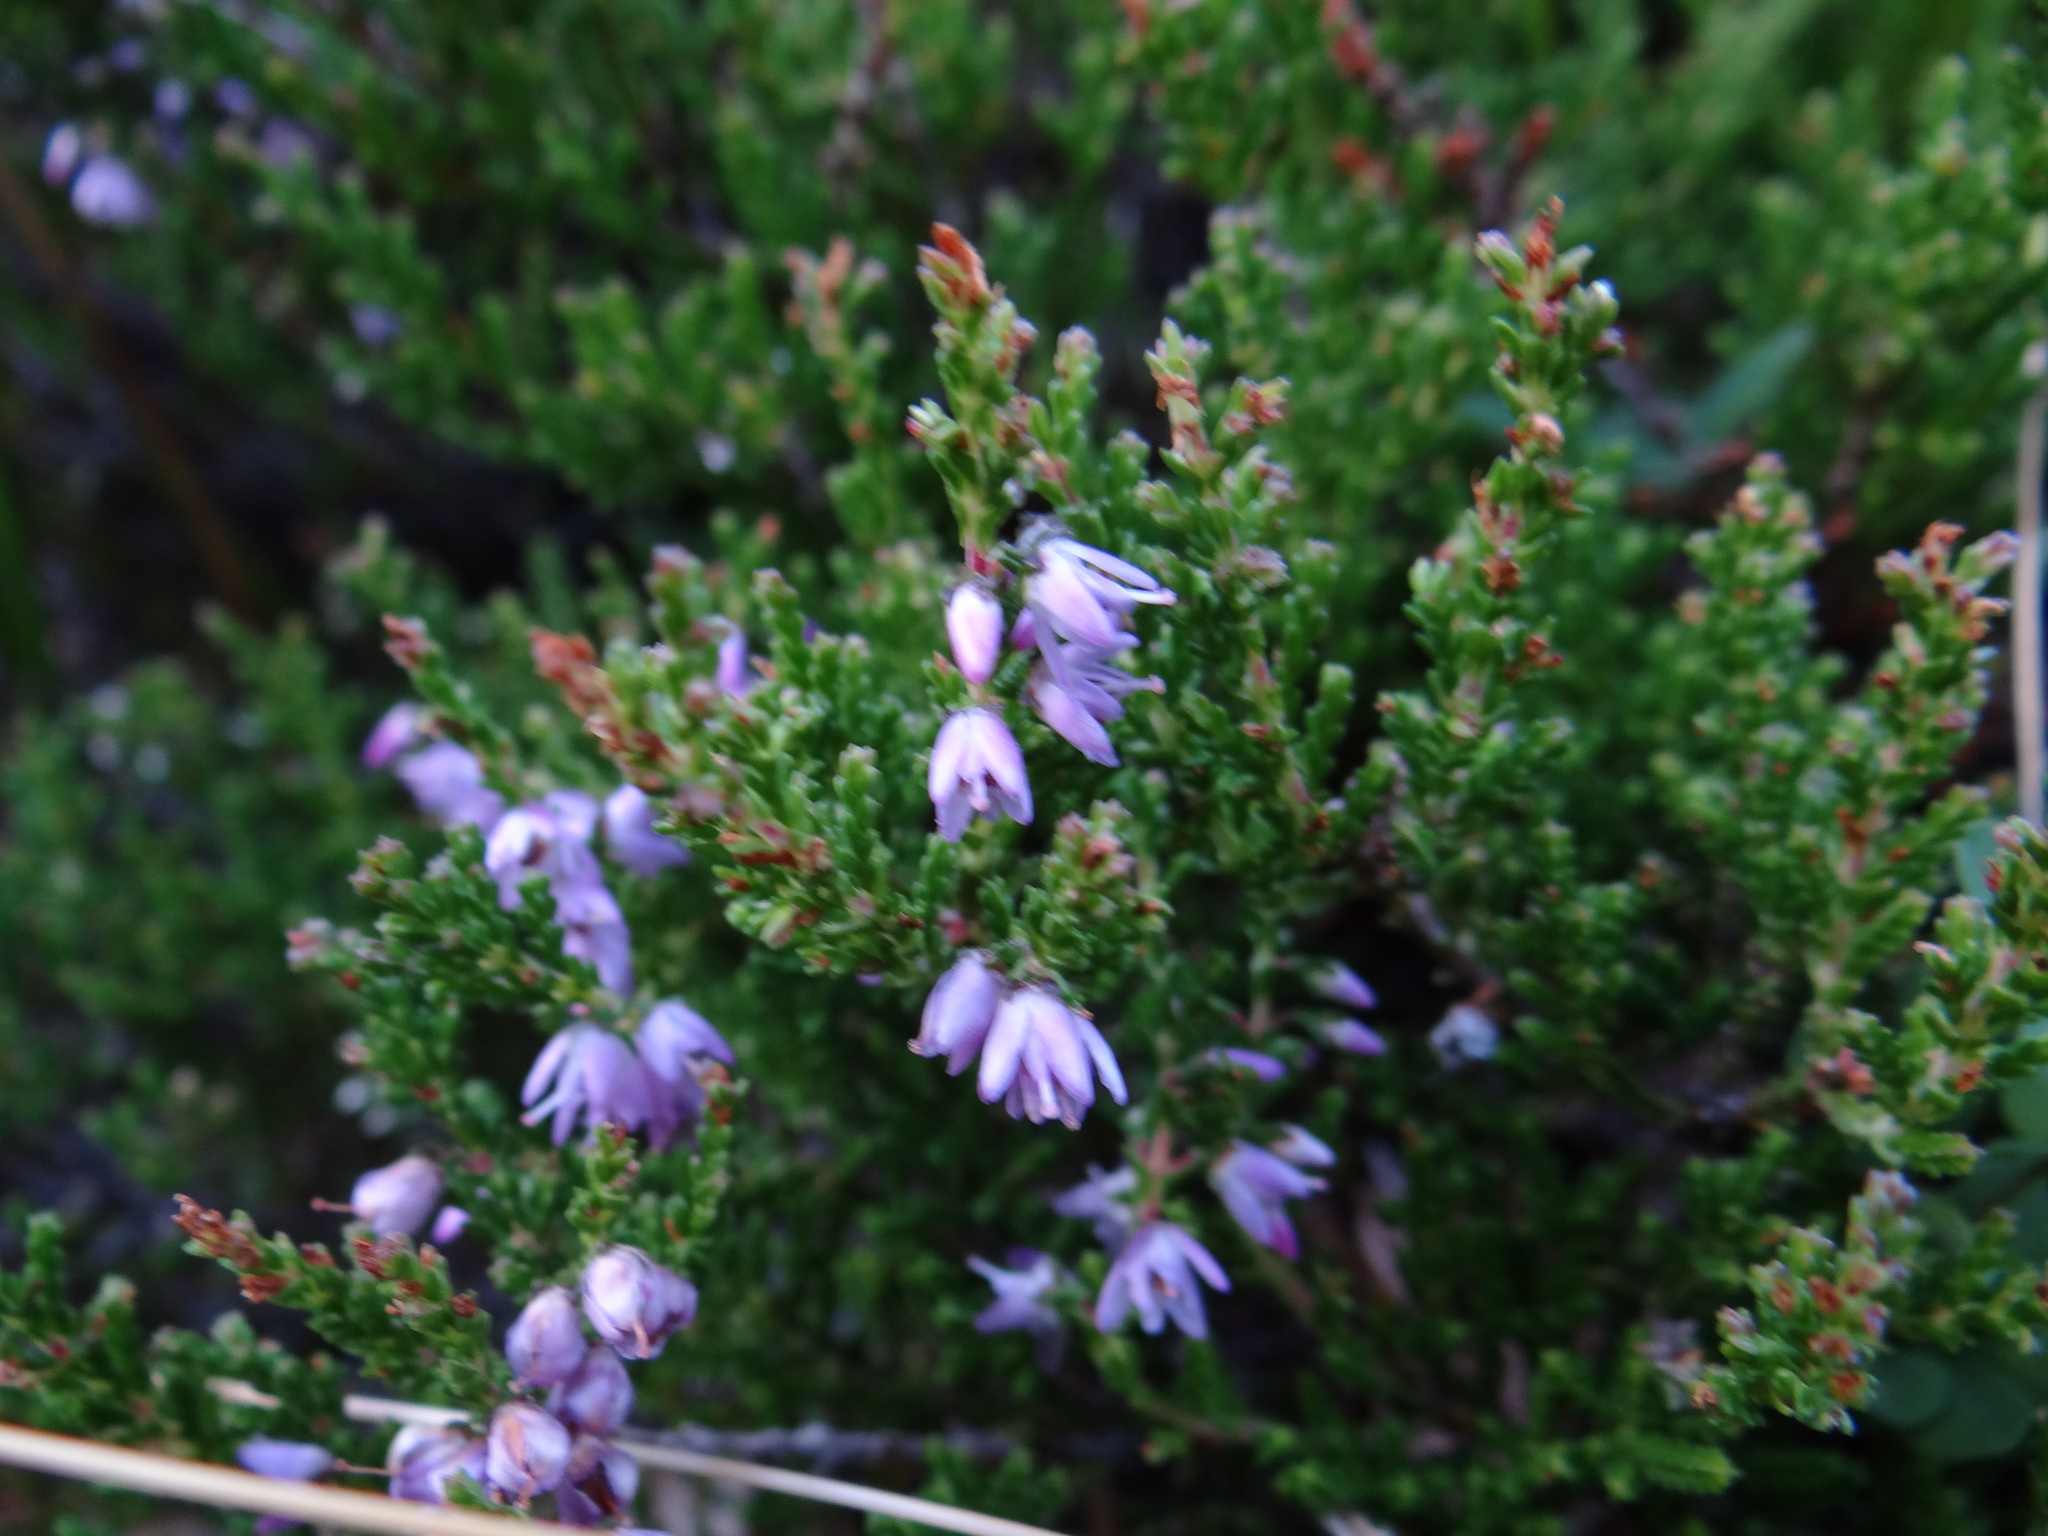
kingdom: Plantae
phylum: Tracheophyta
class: Magnoliopsida
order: Ericales
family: Ericaceae
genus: Calluna
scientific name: Calluna vulgaris
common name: Heather
